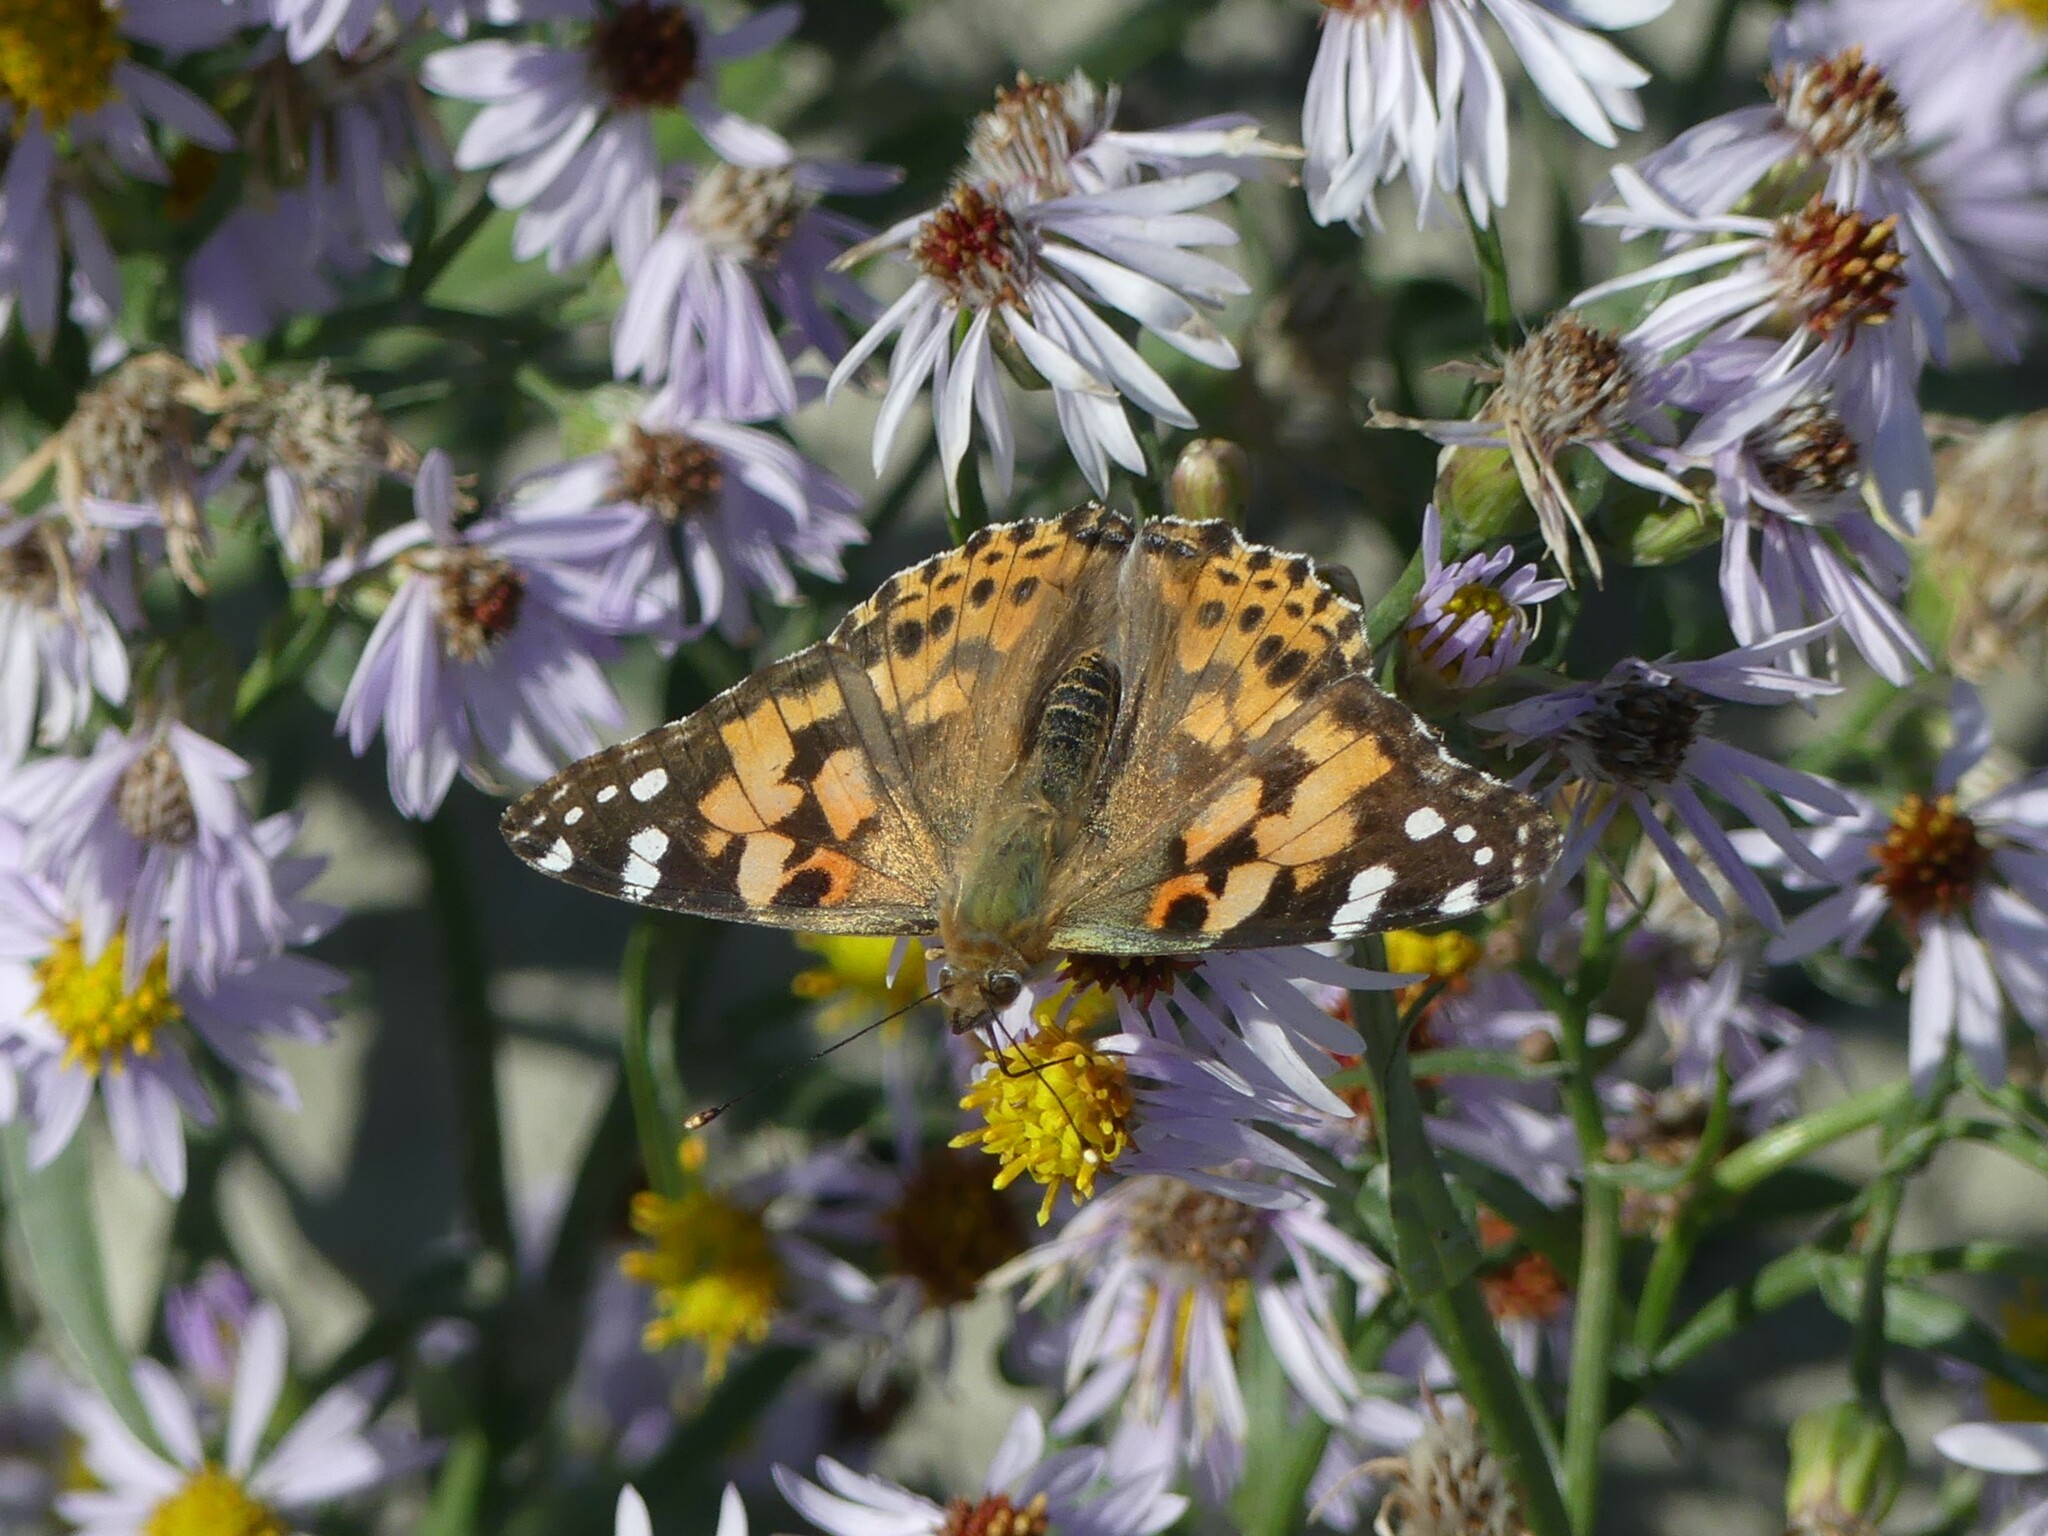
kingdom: Animalia
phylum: Arthropoda
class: Insecta
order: Lepidoptera
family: Nymphalidae
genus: Vanessa
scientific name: Vanessa cardui
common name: Painted lady
